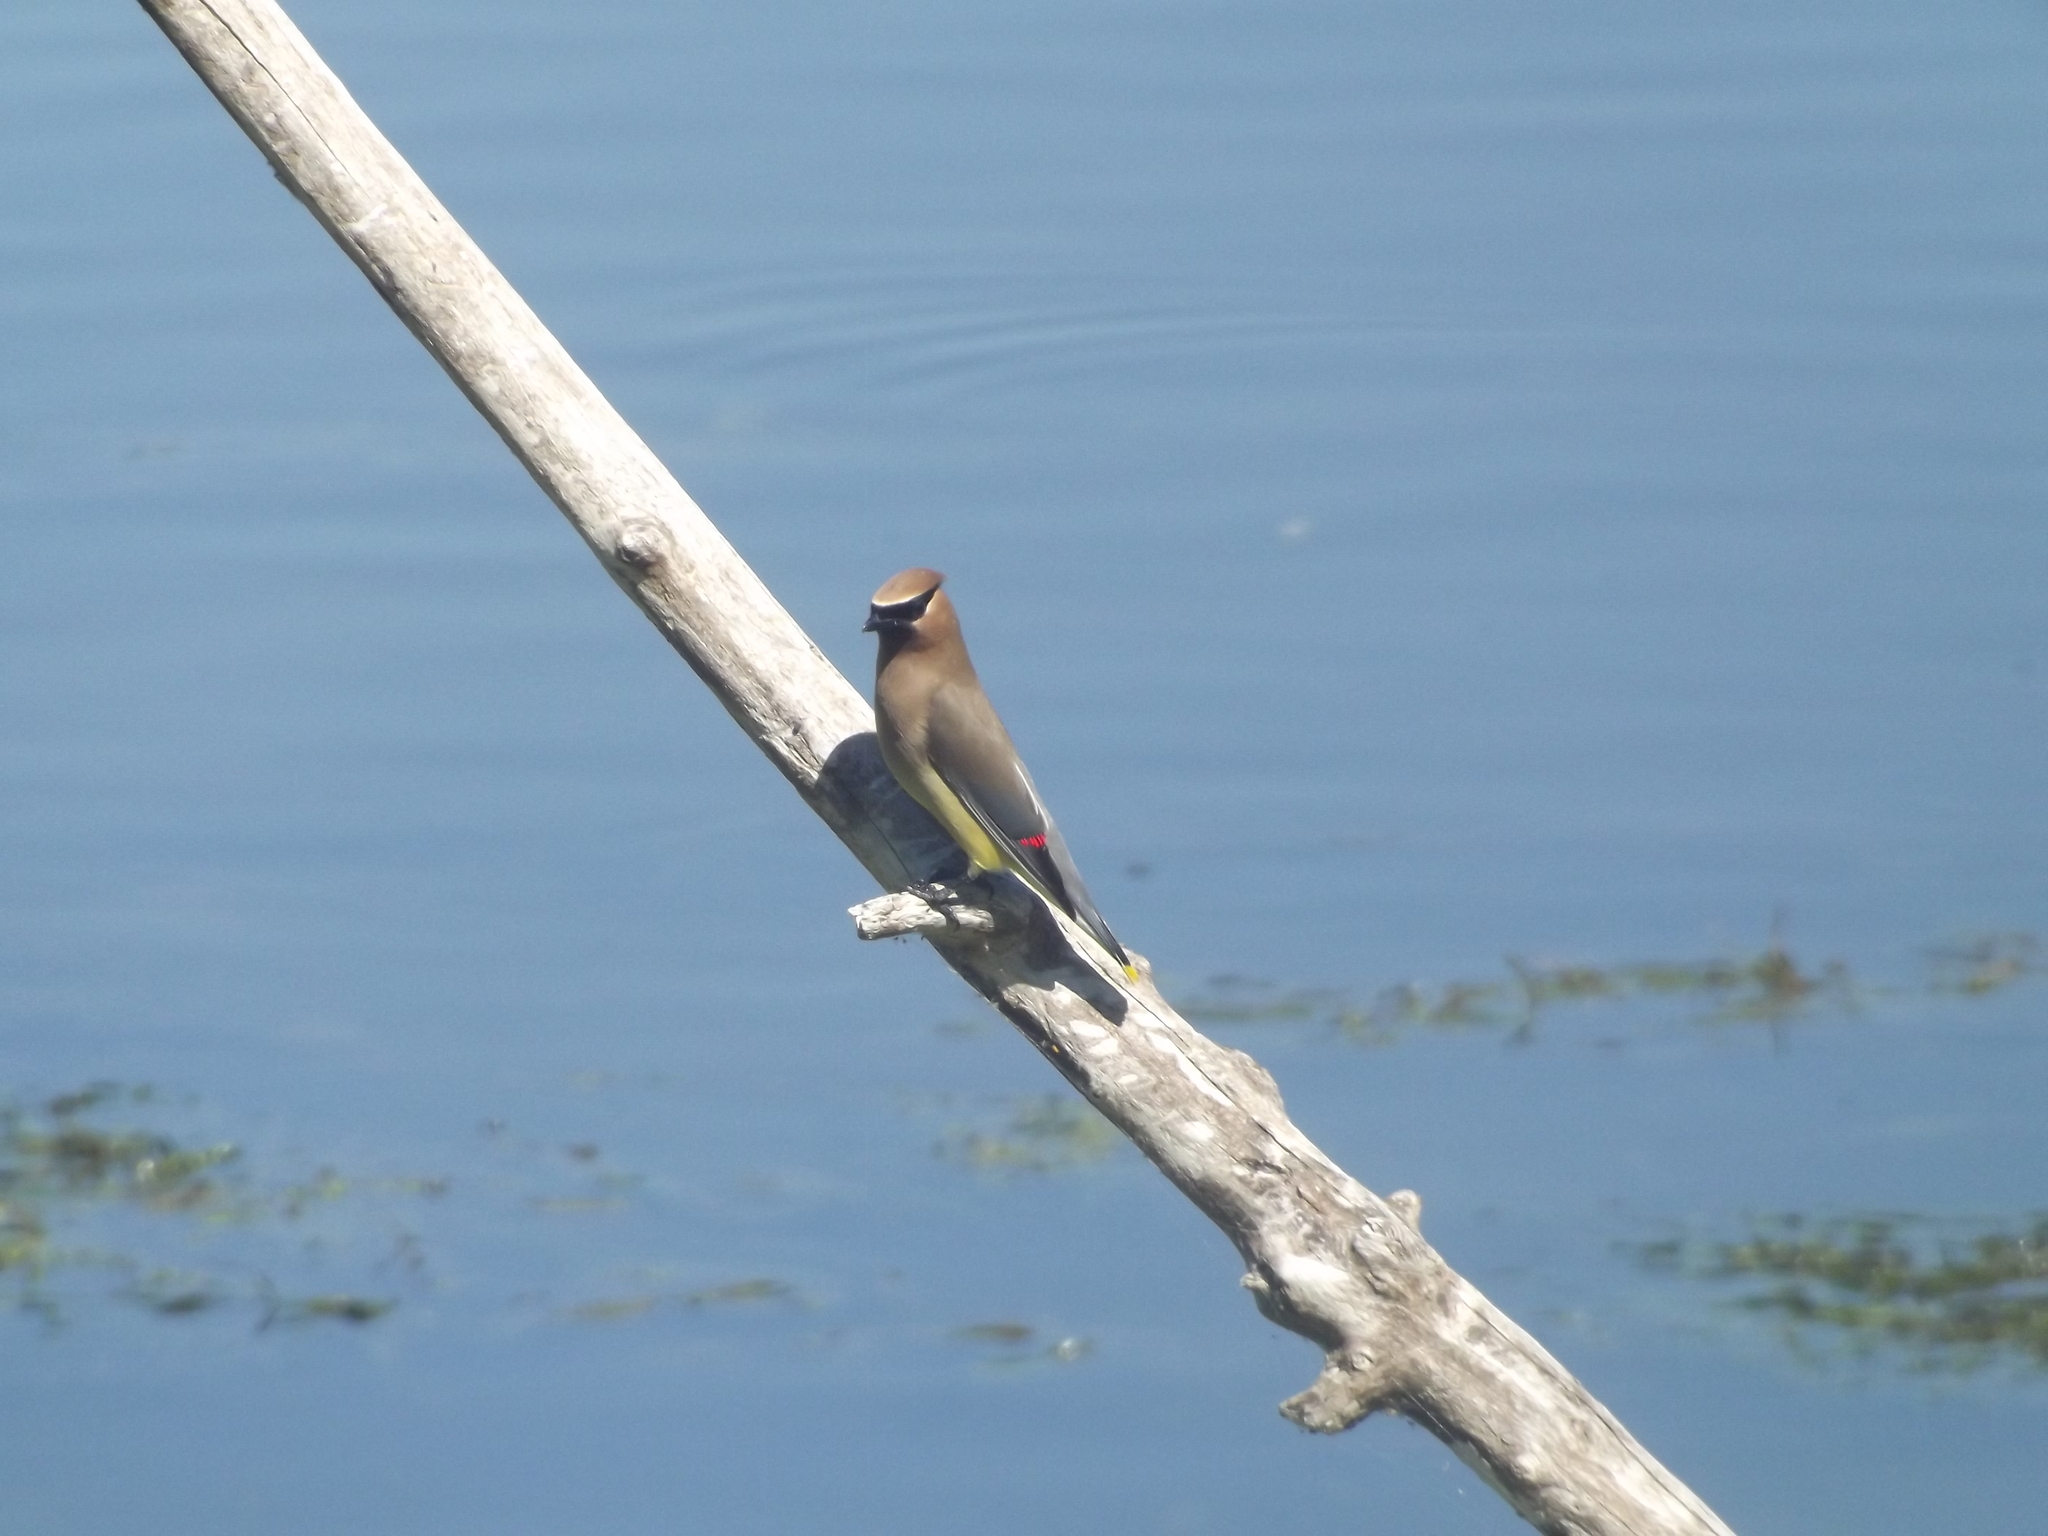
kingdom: Animalia
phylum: Chordata
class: Aves
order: Passeriformes
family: Bombycillidae
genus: Bombycilla
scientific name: Bombycilla cedrorum
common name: Cedar waxwing
